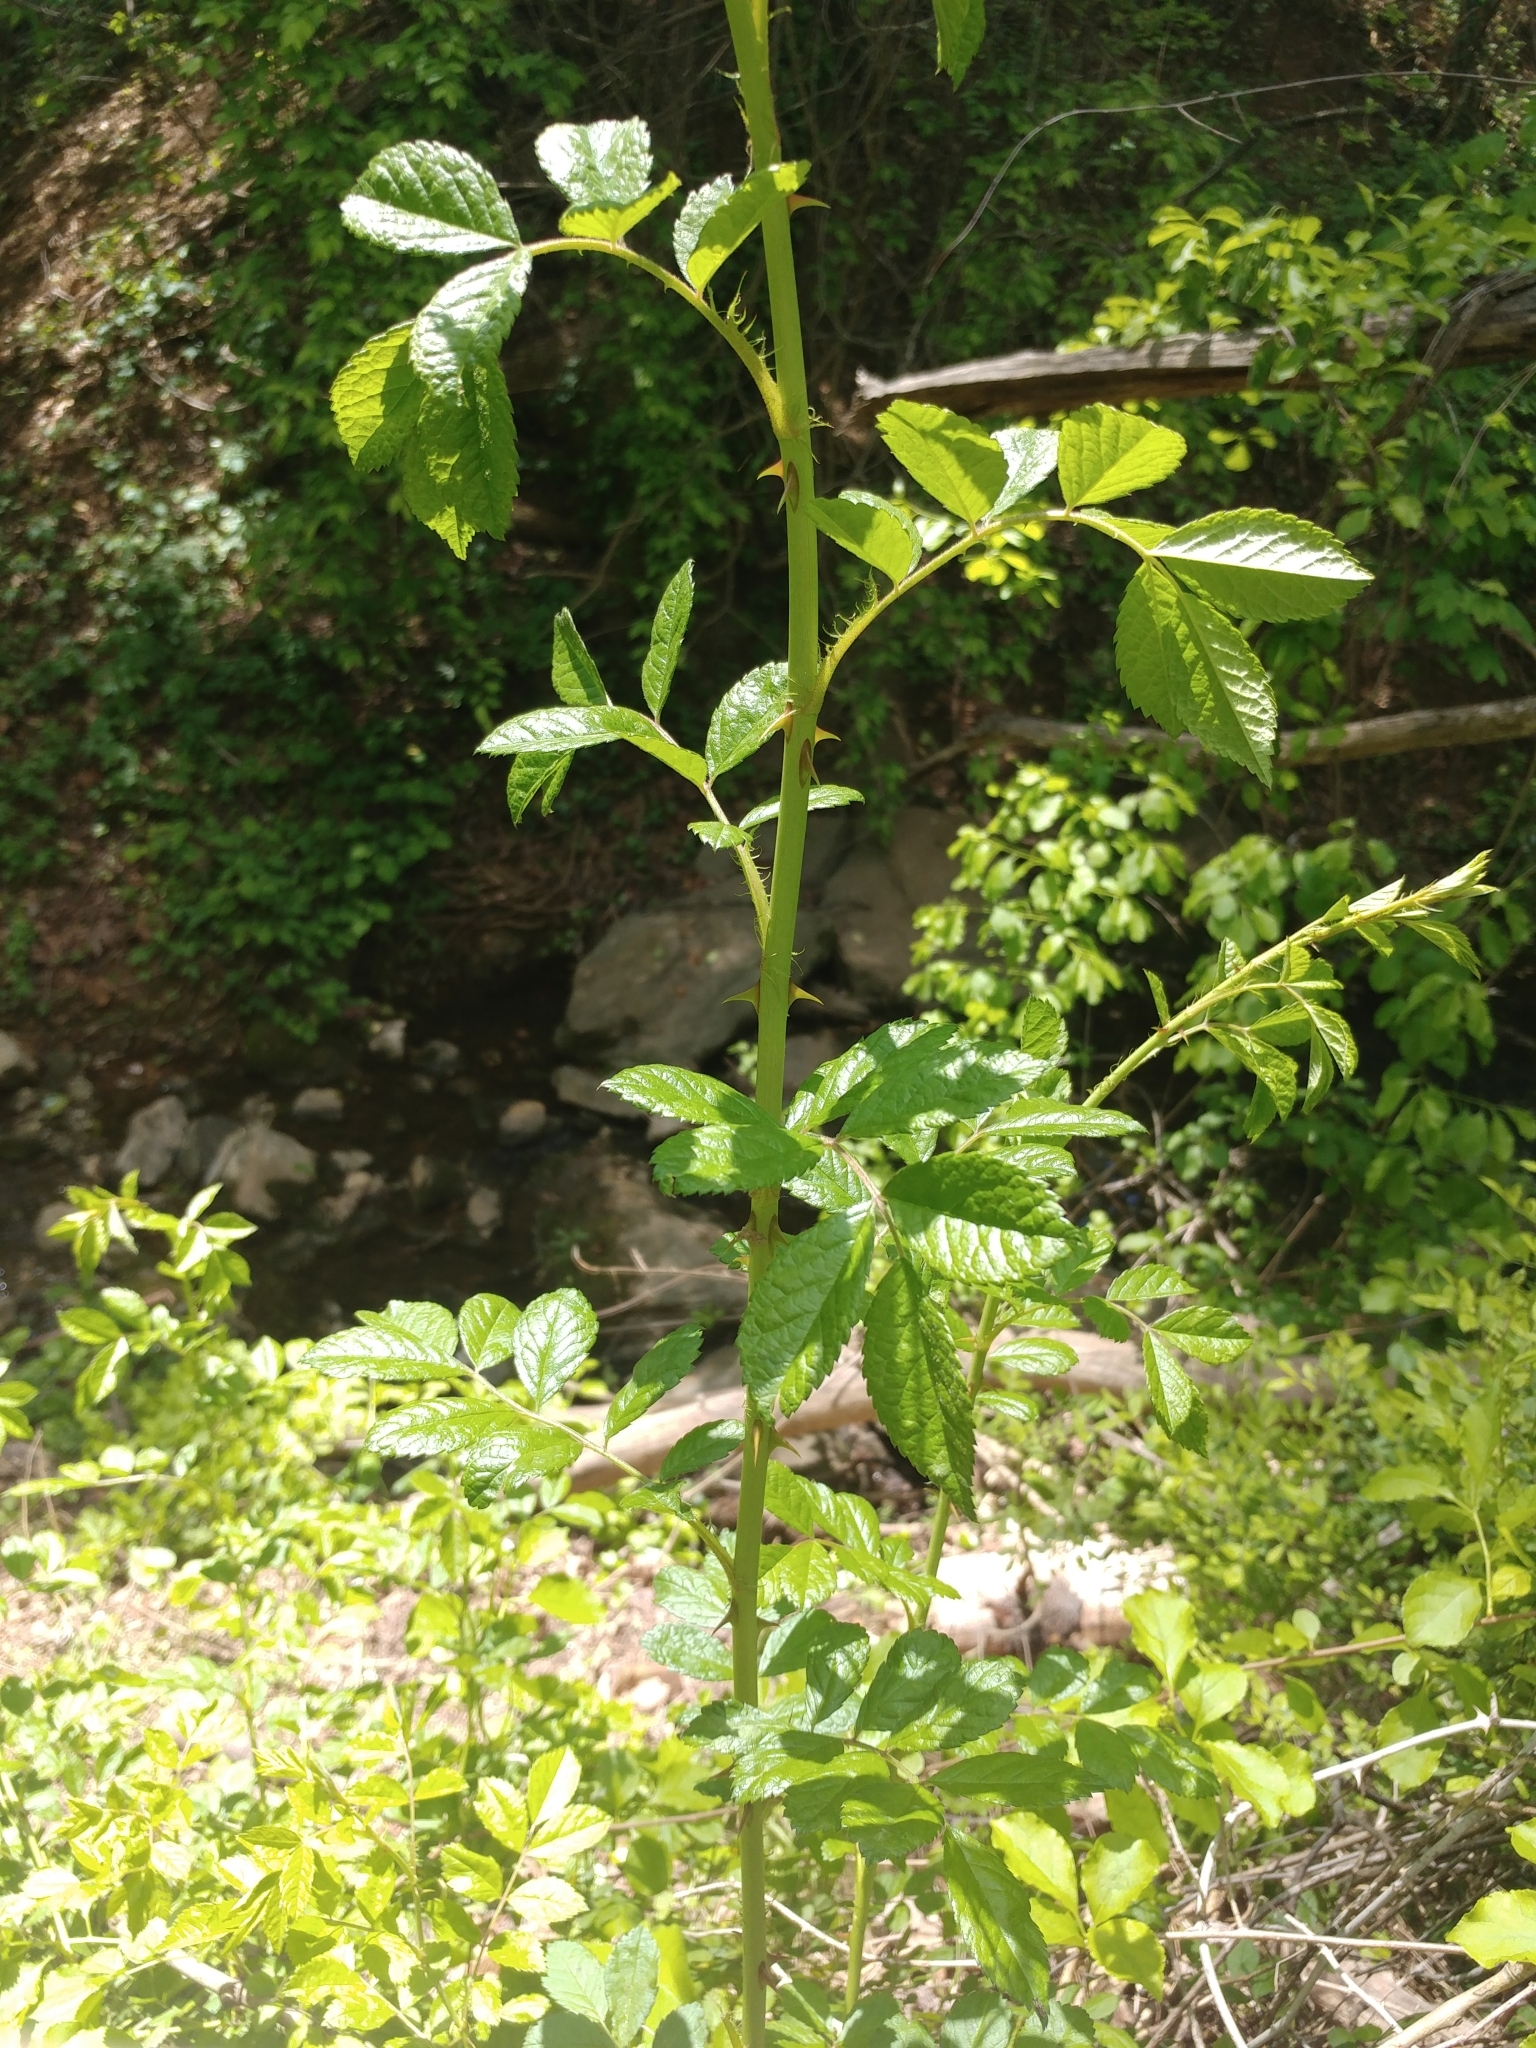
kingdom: Plantae
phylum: Tracheophyta
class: Magnoliopsida
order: Rosales
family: Rosaceae
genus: Rosa
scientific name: Rosa multiflora
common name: Multiflora rose
